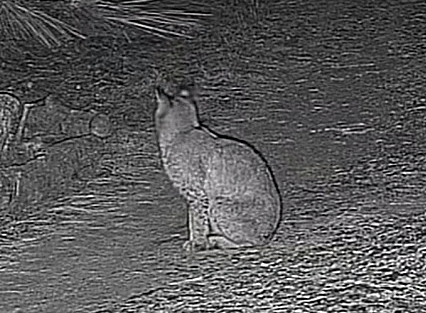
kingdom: Animalia
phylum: Chordata
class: Mammalia
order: Carnivora
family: Felidae
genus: Lynx
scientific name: Lynx rufus
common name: Bobcat
